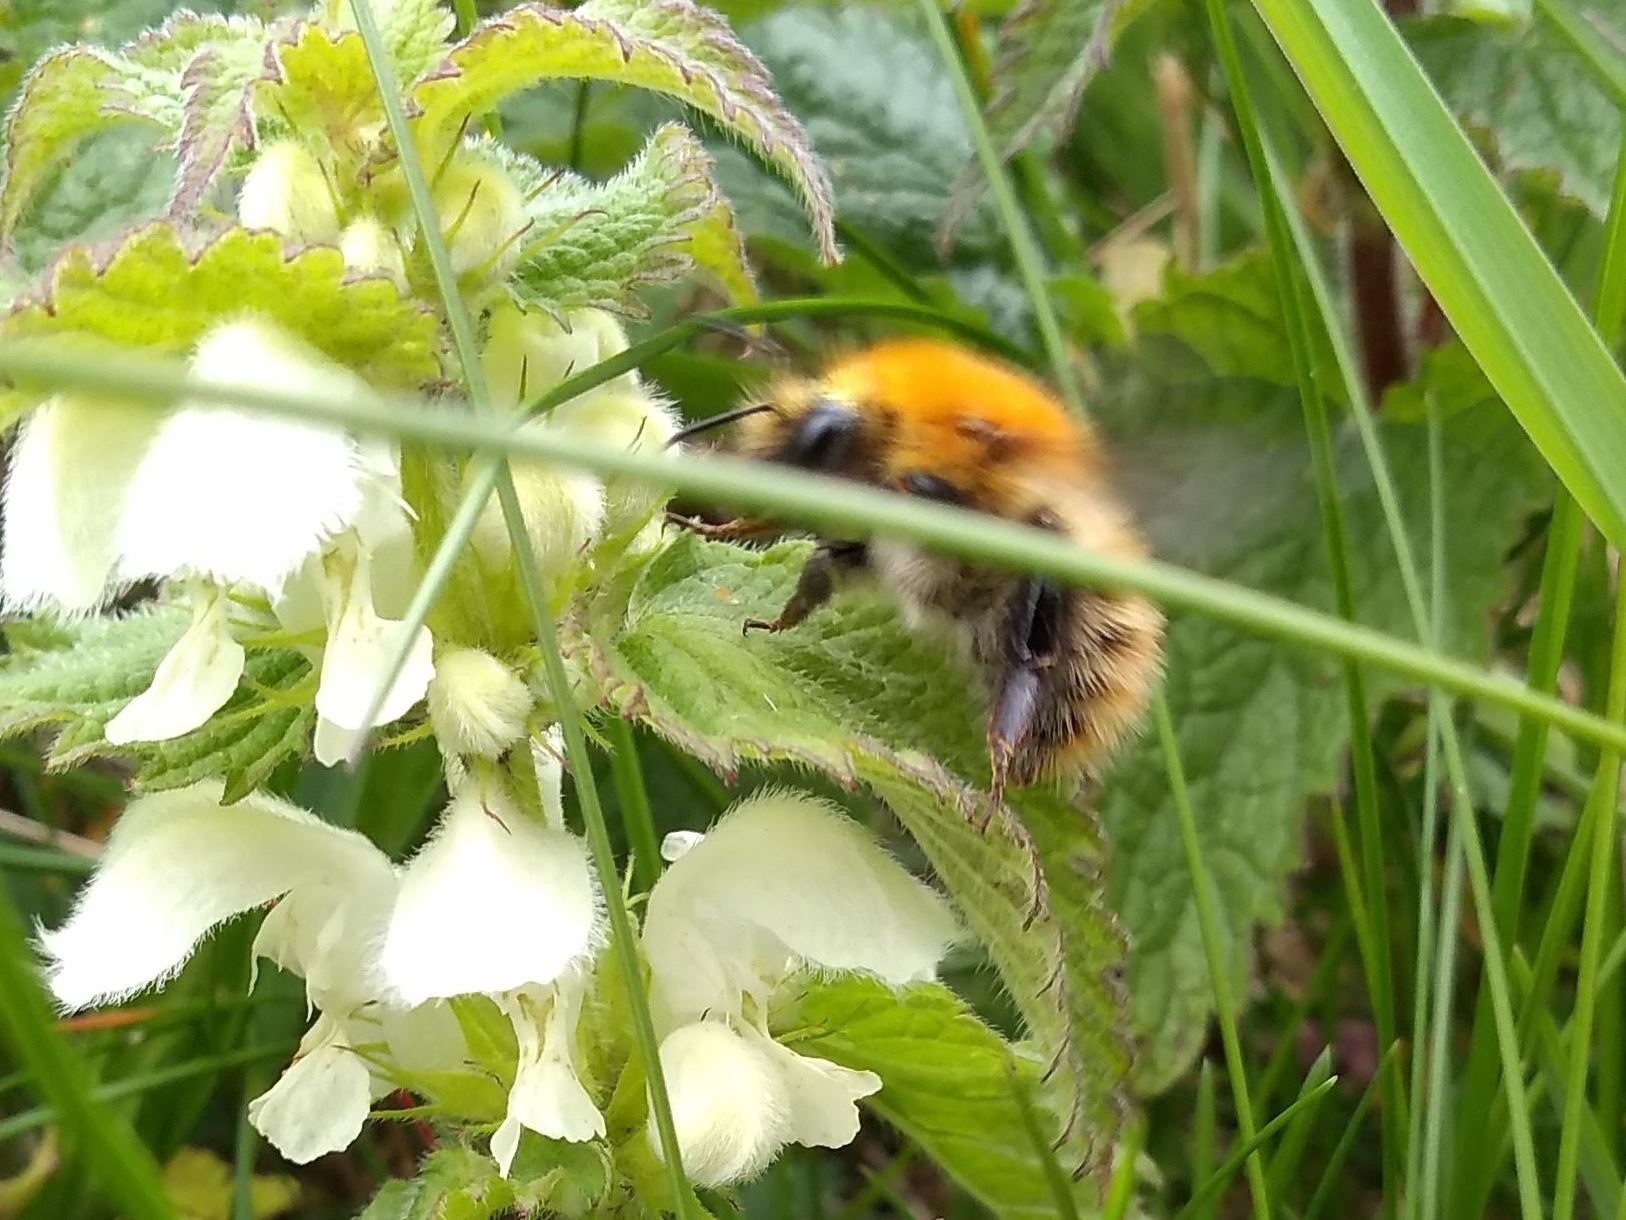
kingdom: Animalia
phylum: Arthropoda
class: Insecta
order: Hymenoptera
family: Apidae
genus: Bombus
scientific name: Bombus pascuorum
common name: Common carder bee
